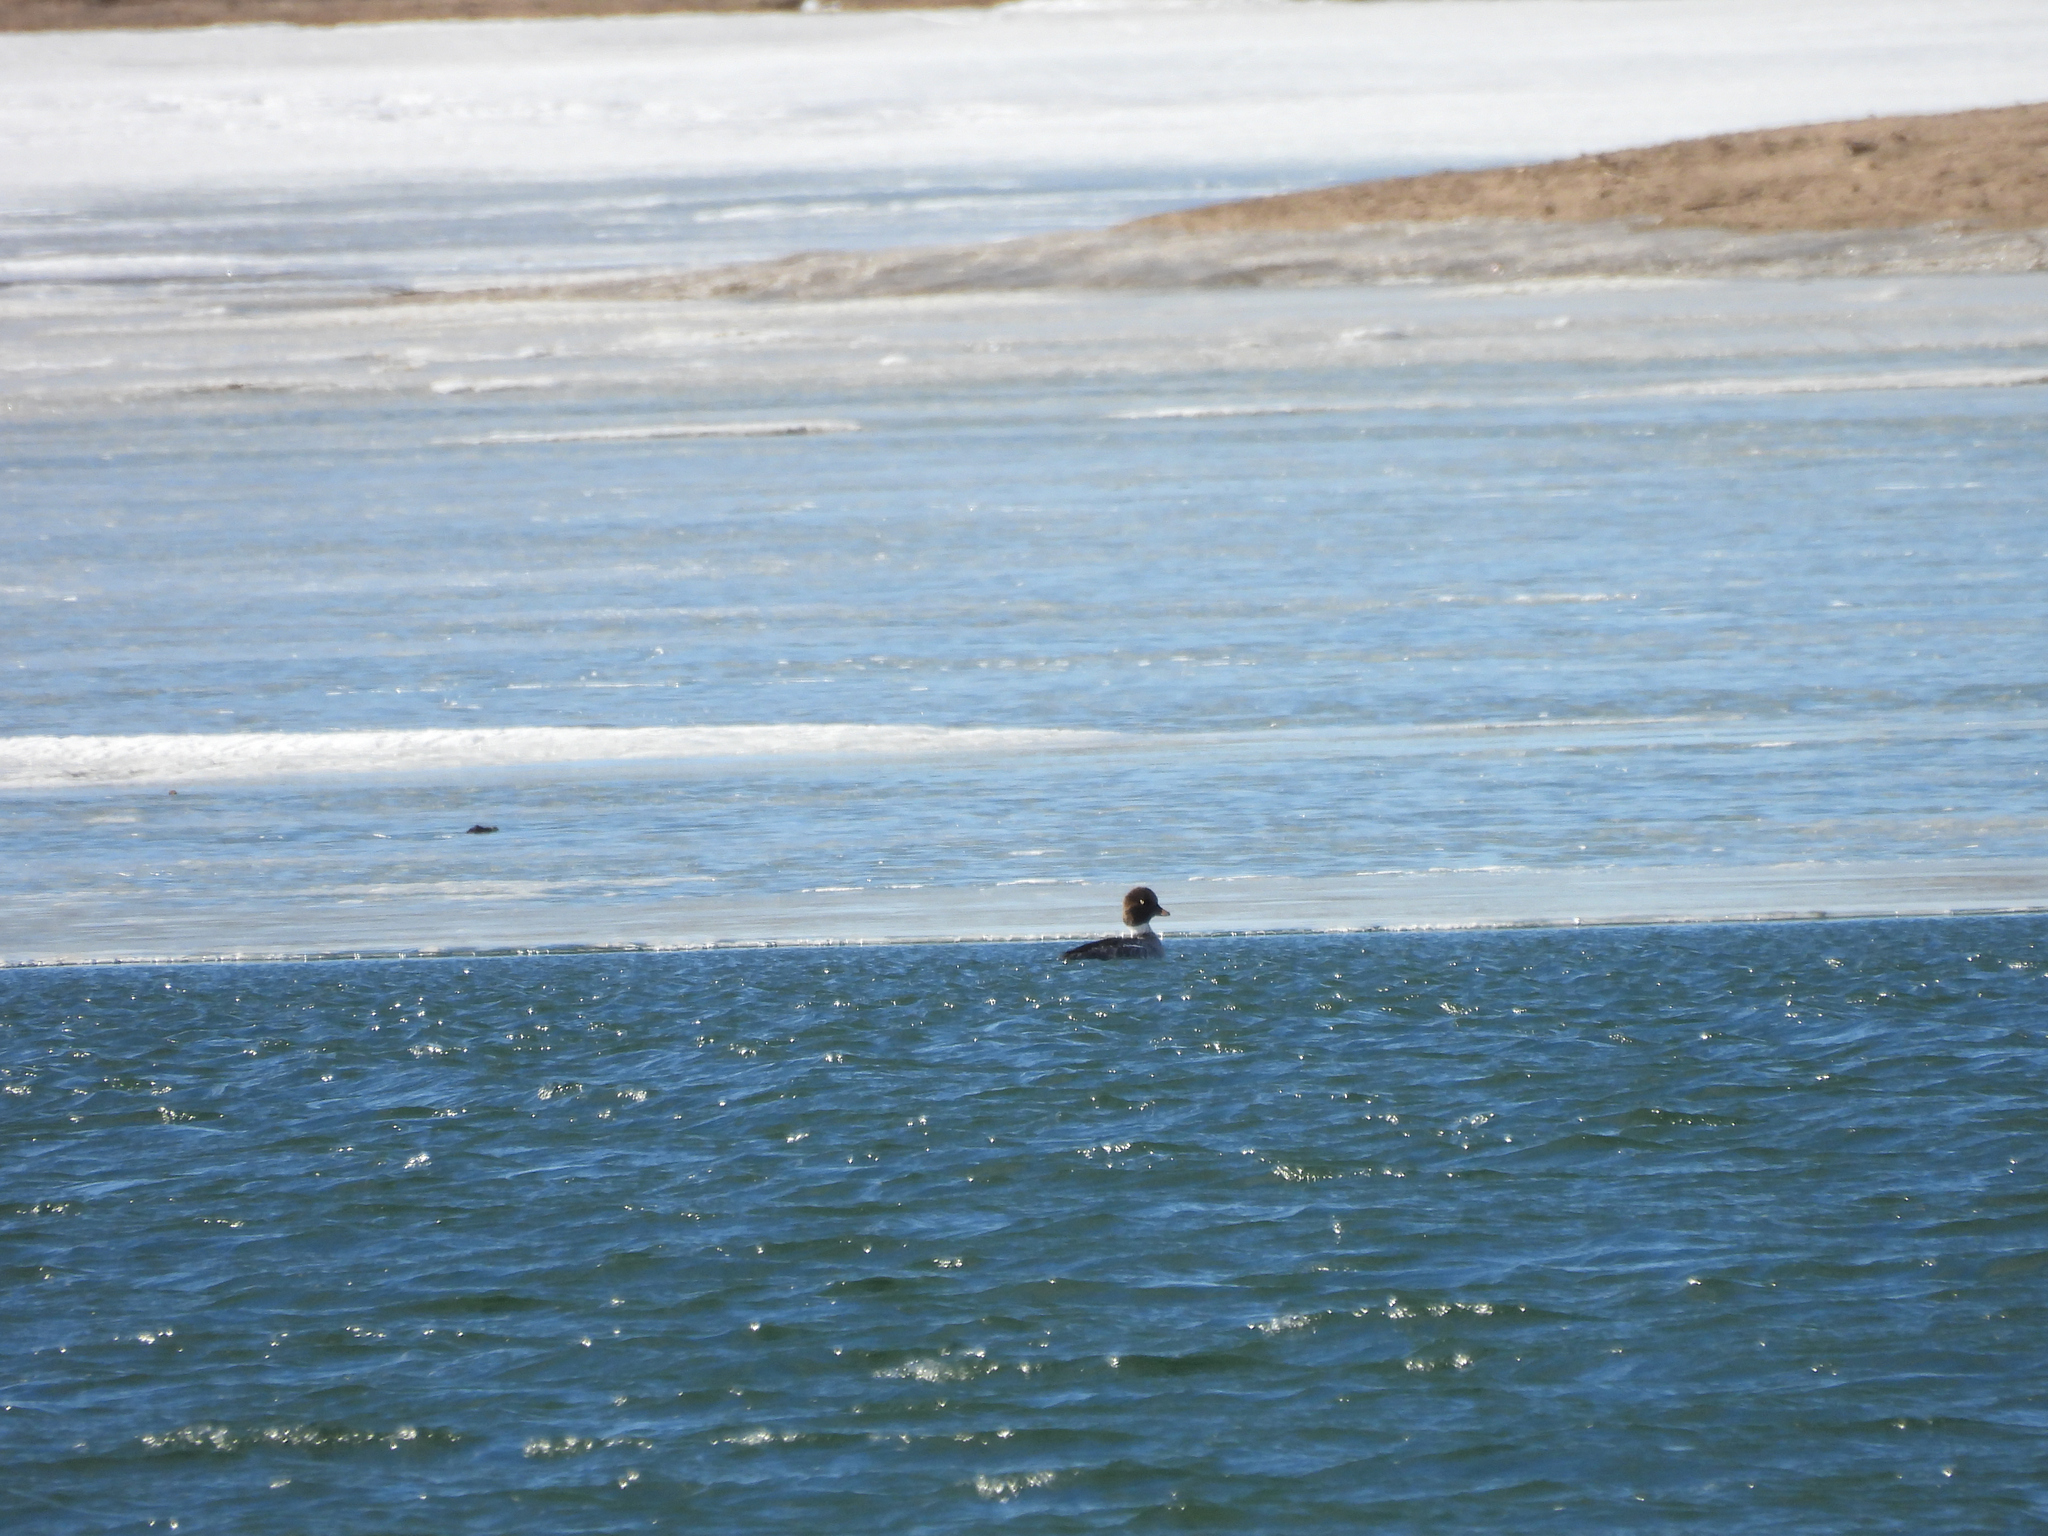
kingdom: Animalia
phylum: Chordata
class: Aves
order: Anseriformes
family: Anatidae
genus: Bucephala
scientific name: Bucephala clangula
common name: Common goldeneye
